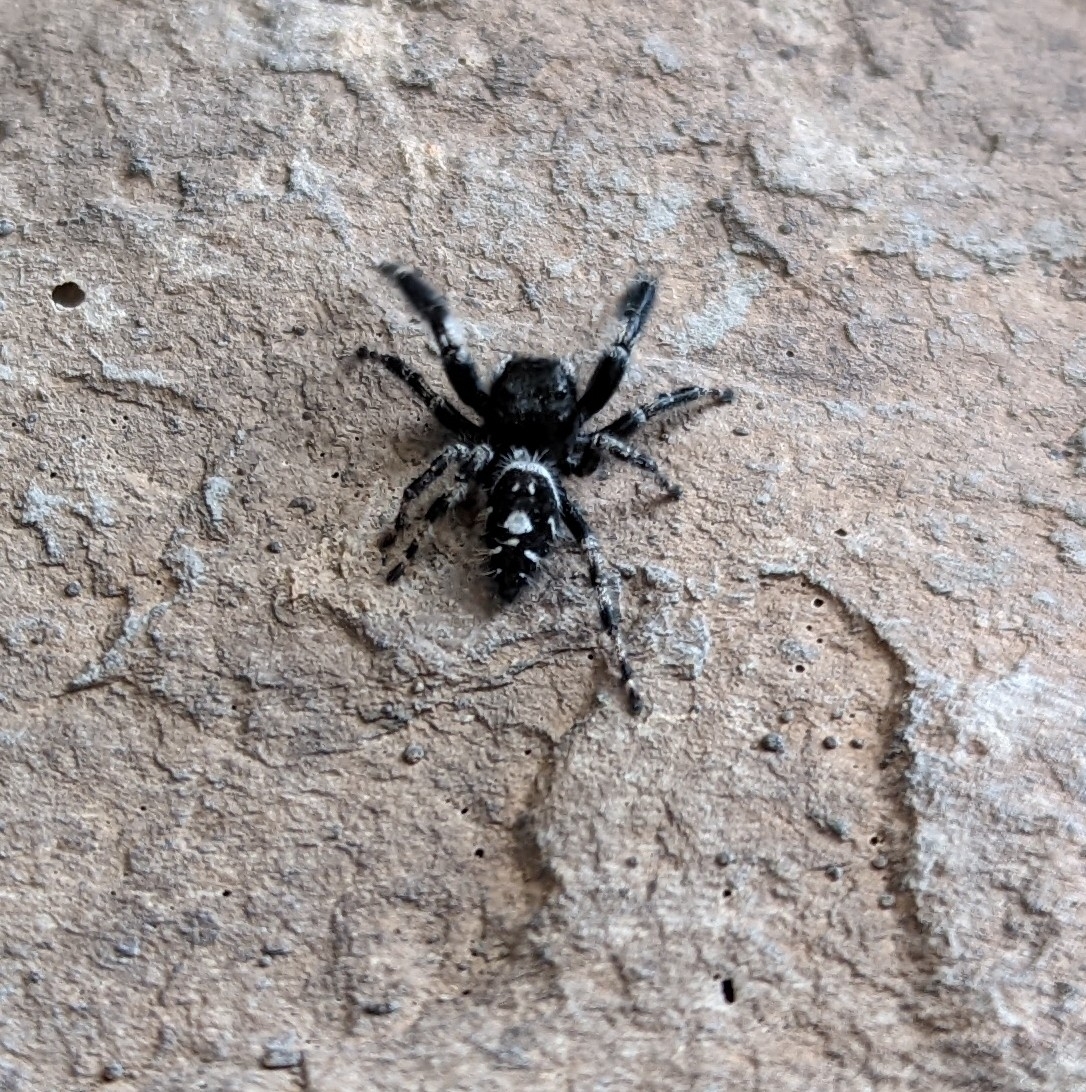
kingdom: Animalia
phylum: Arthropoda
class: Arachnida
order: Araneae
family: Salticidae
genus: Phidippus
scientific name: Phidippus audax
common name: Bold jumper
